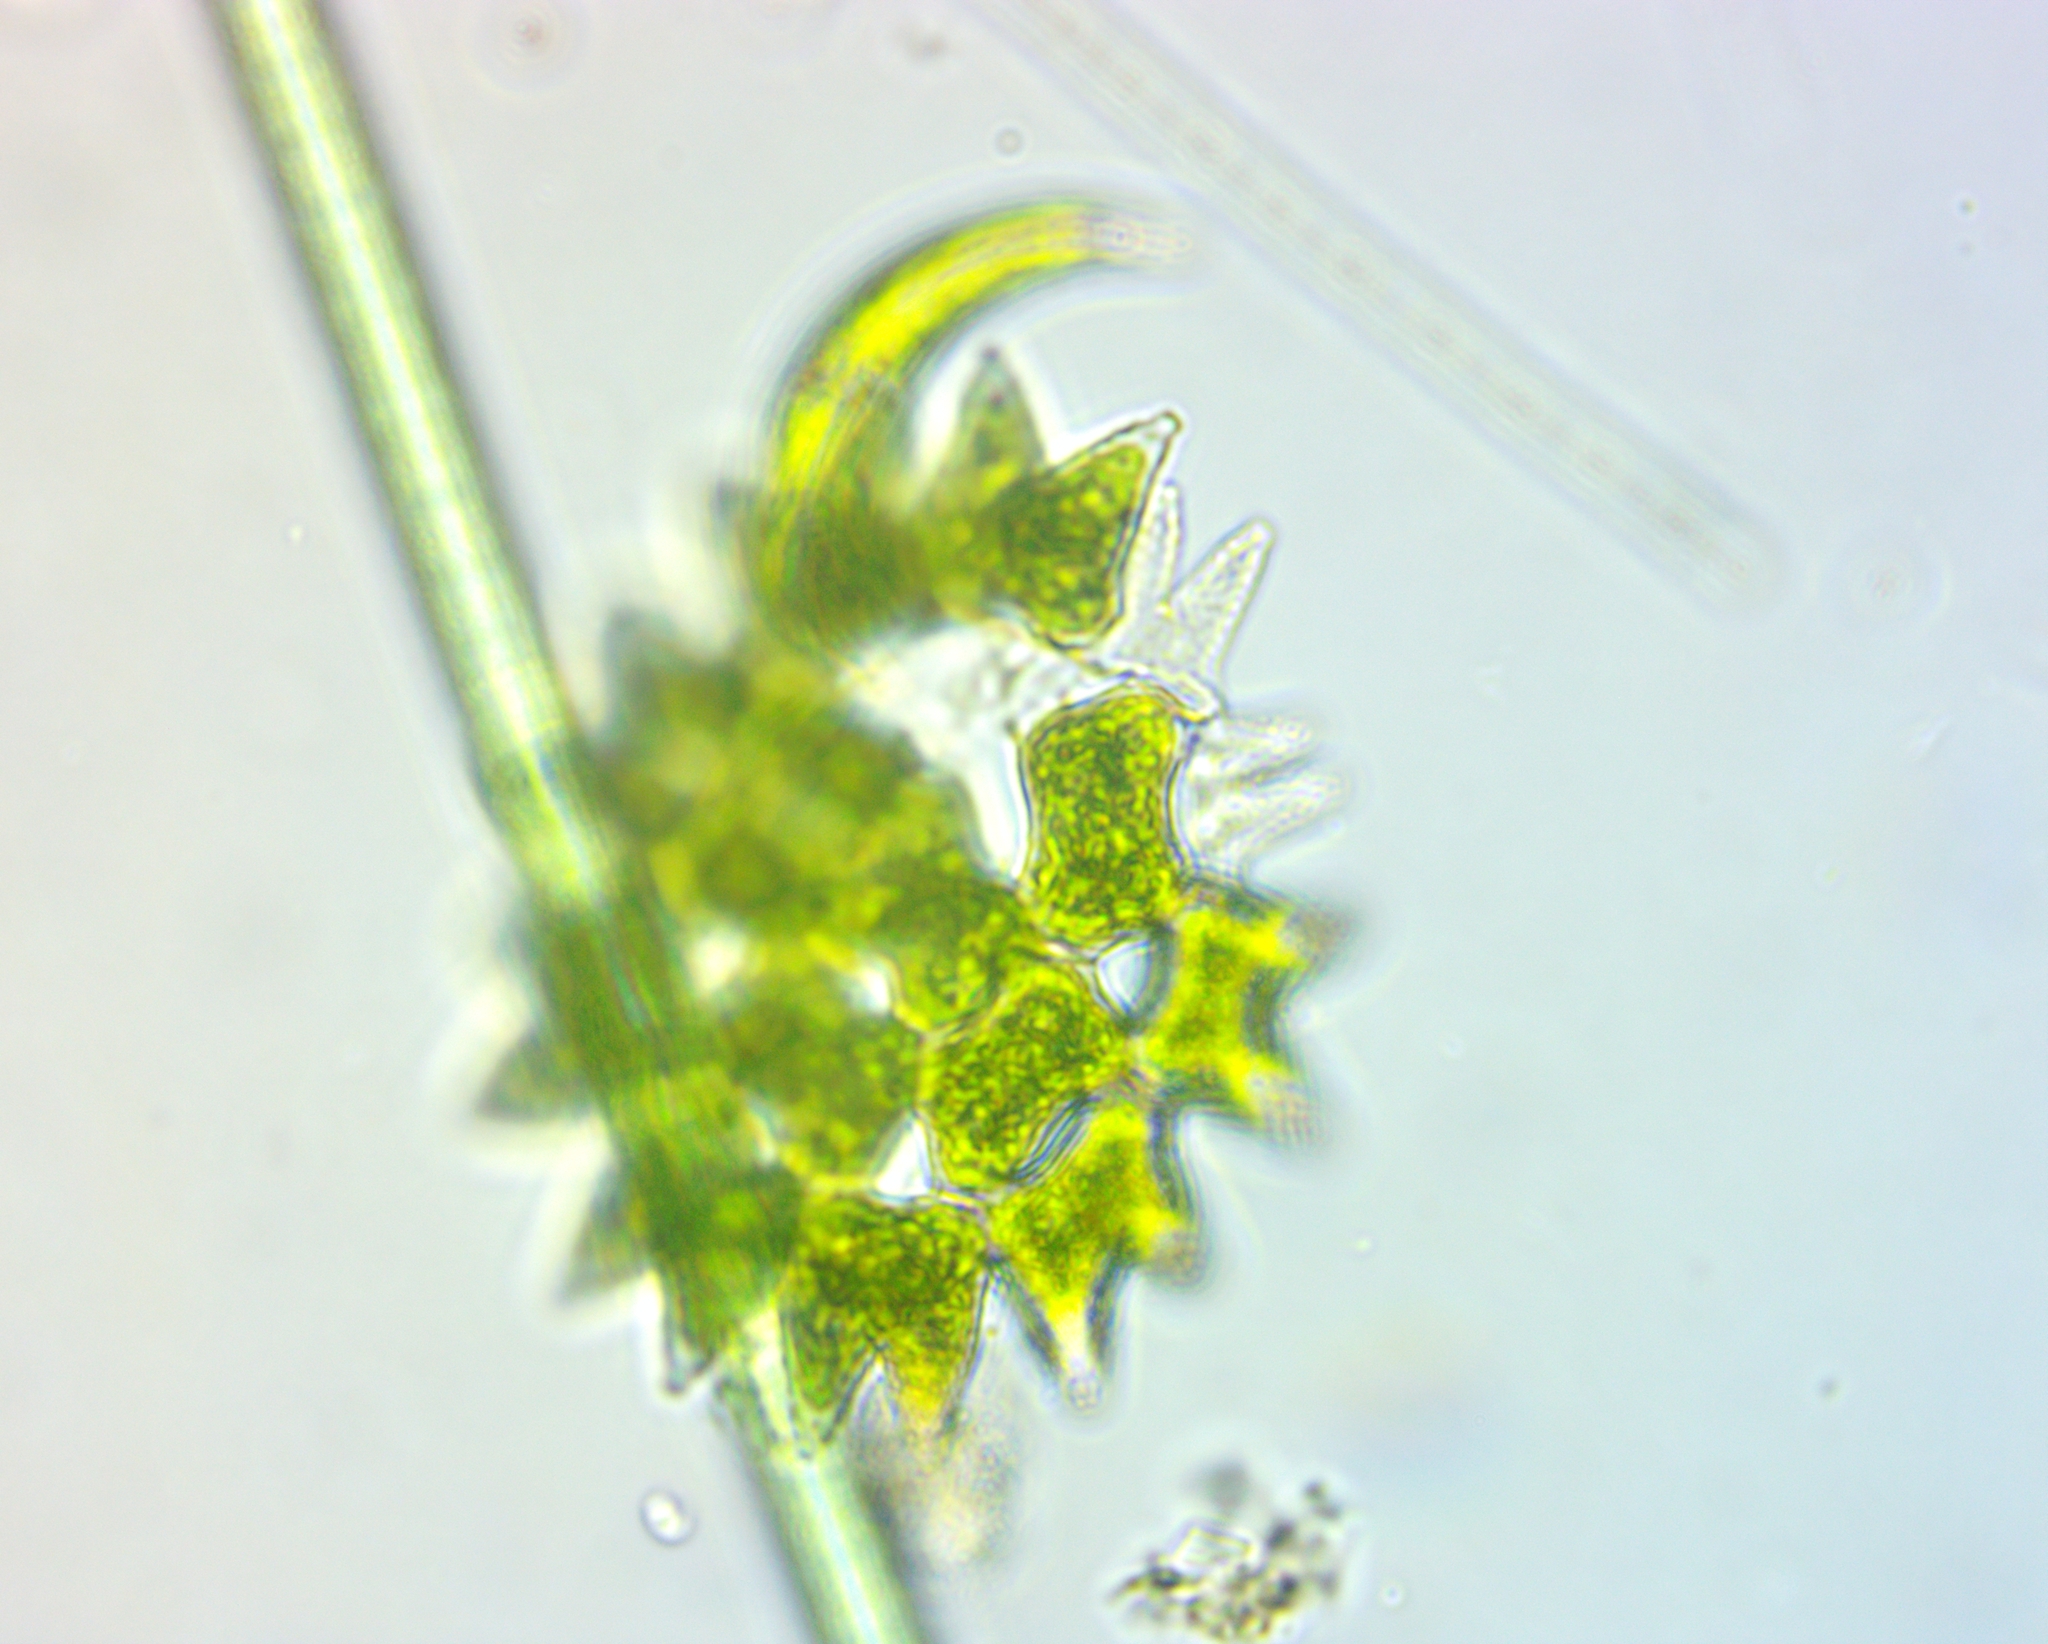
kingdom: Plantae
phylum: Chlorophyta
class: Chlorophyceae
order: Sphaeropleales
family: Hydrodictyaceae
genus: Pediastrum
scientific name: Pediastrum duplex
